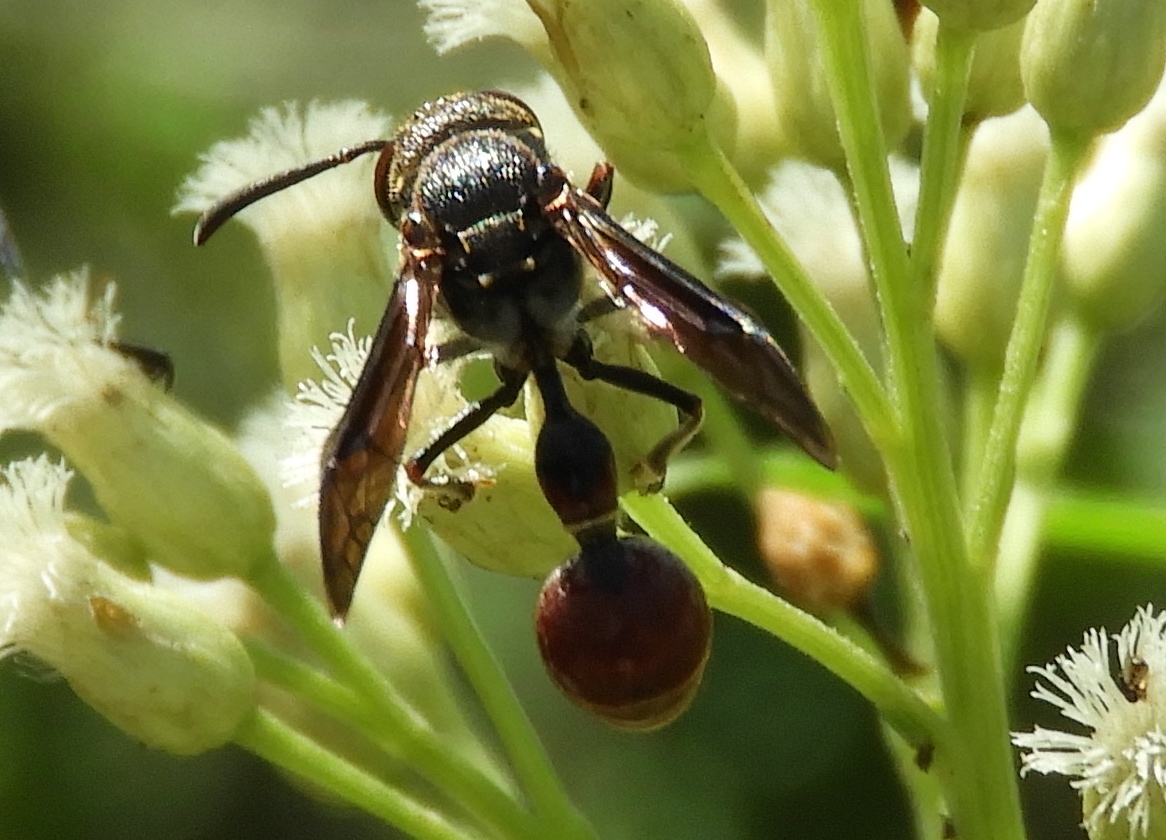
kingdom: Animalia
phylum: Arthropoda
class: Insecta
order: Hymenoptera
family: Eumenidae
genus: Zethus
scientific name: Zethus analis
